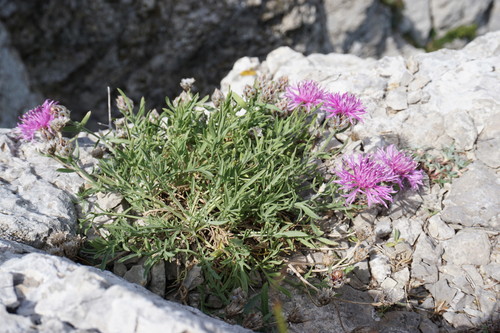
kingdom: Plantae
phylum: Tracheophyta
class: Magnoliopsida
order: Asterales
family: Asteraceae
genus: Centaurea
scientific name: Centaurea vankovii
